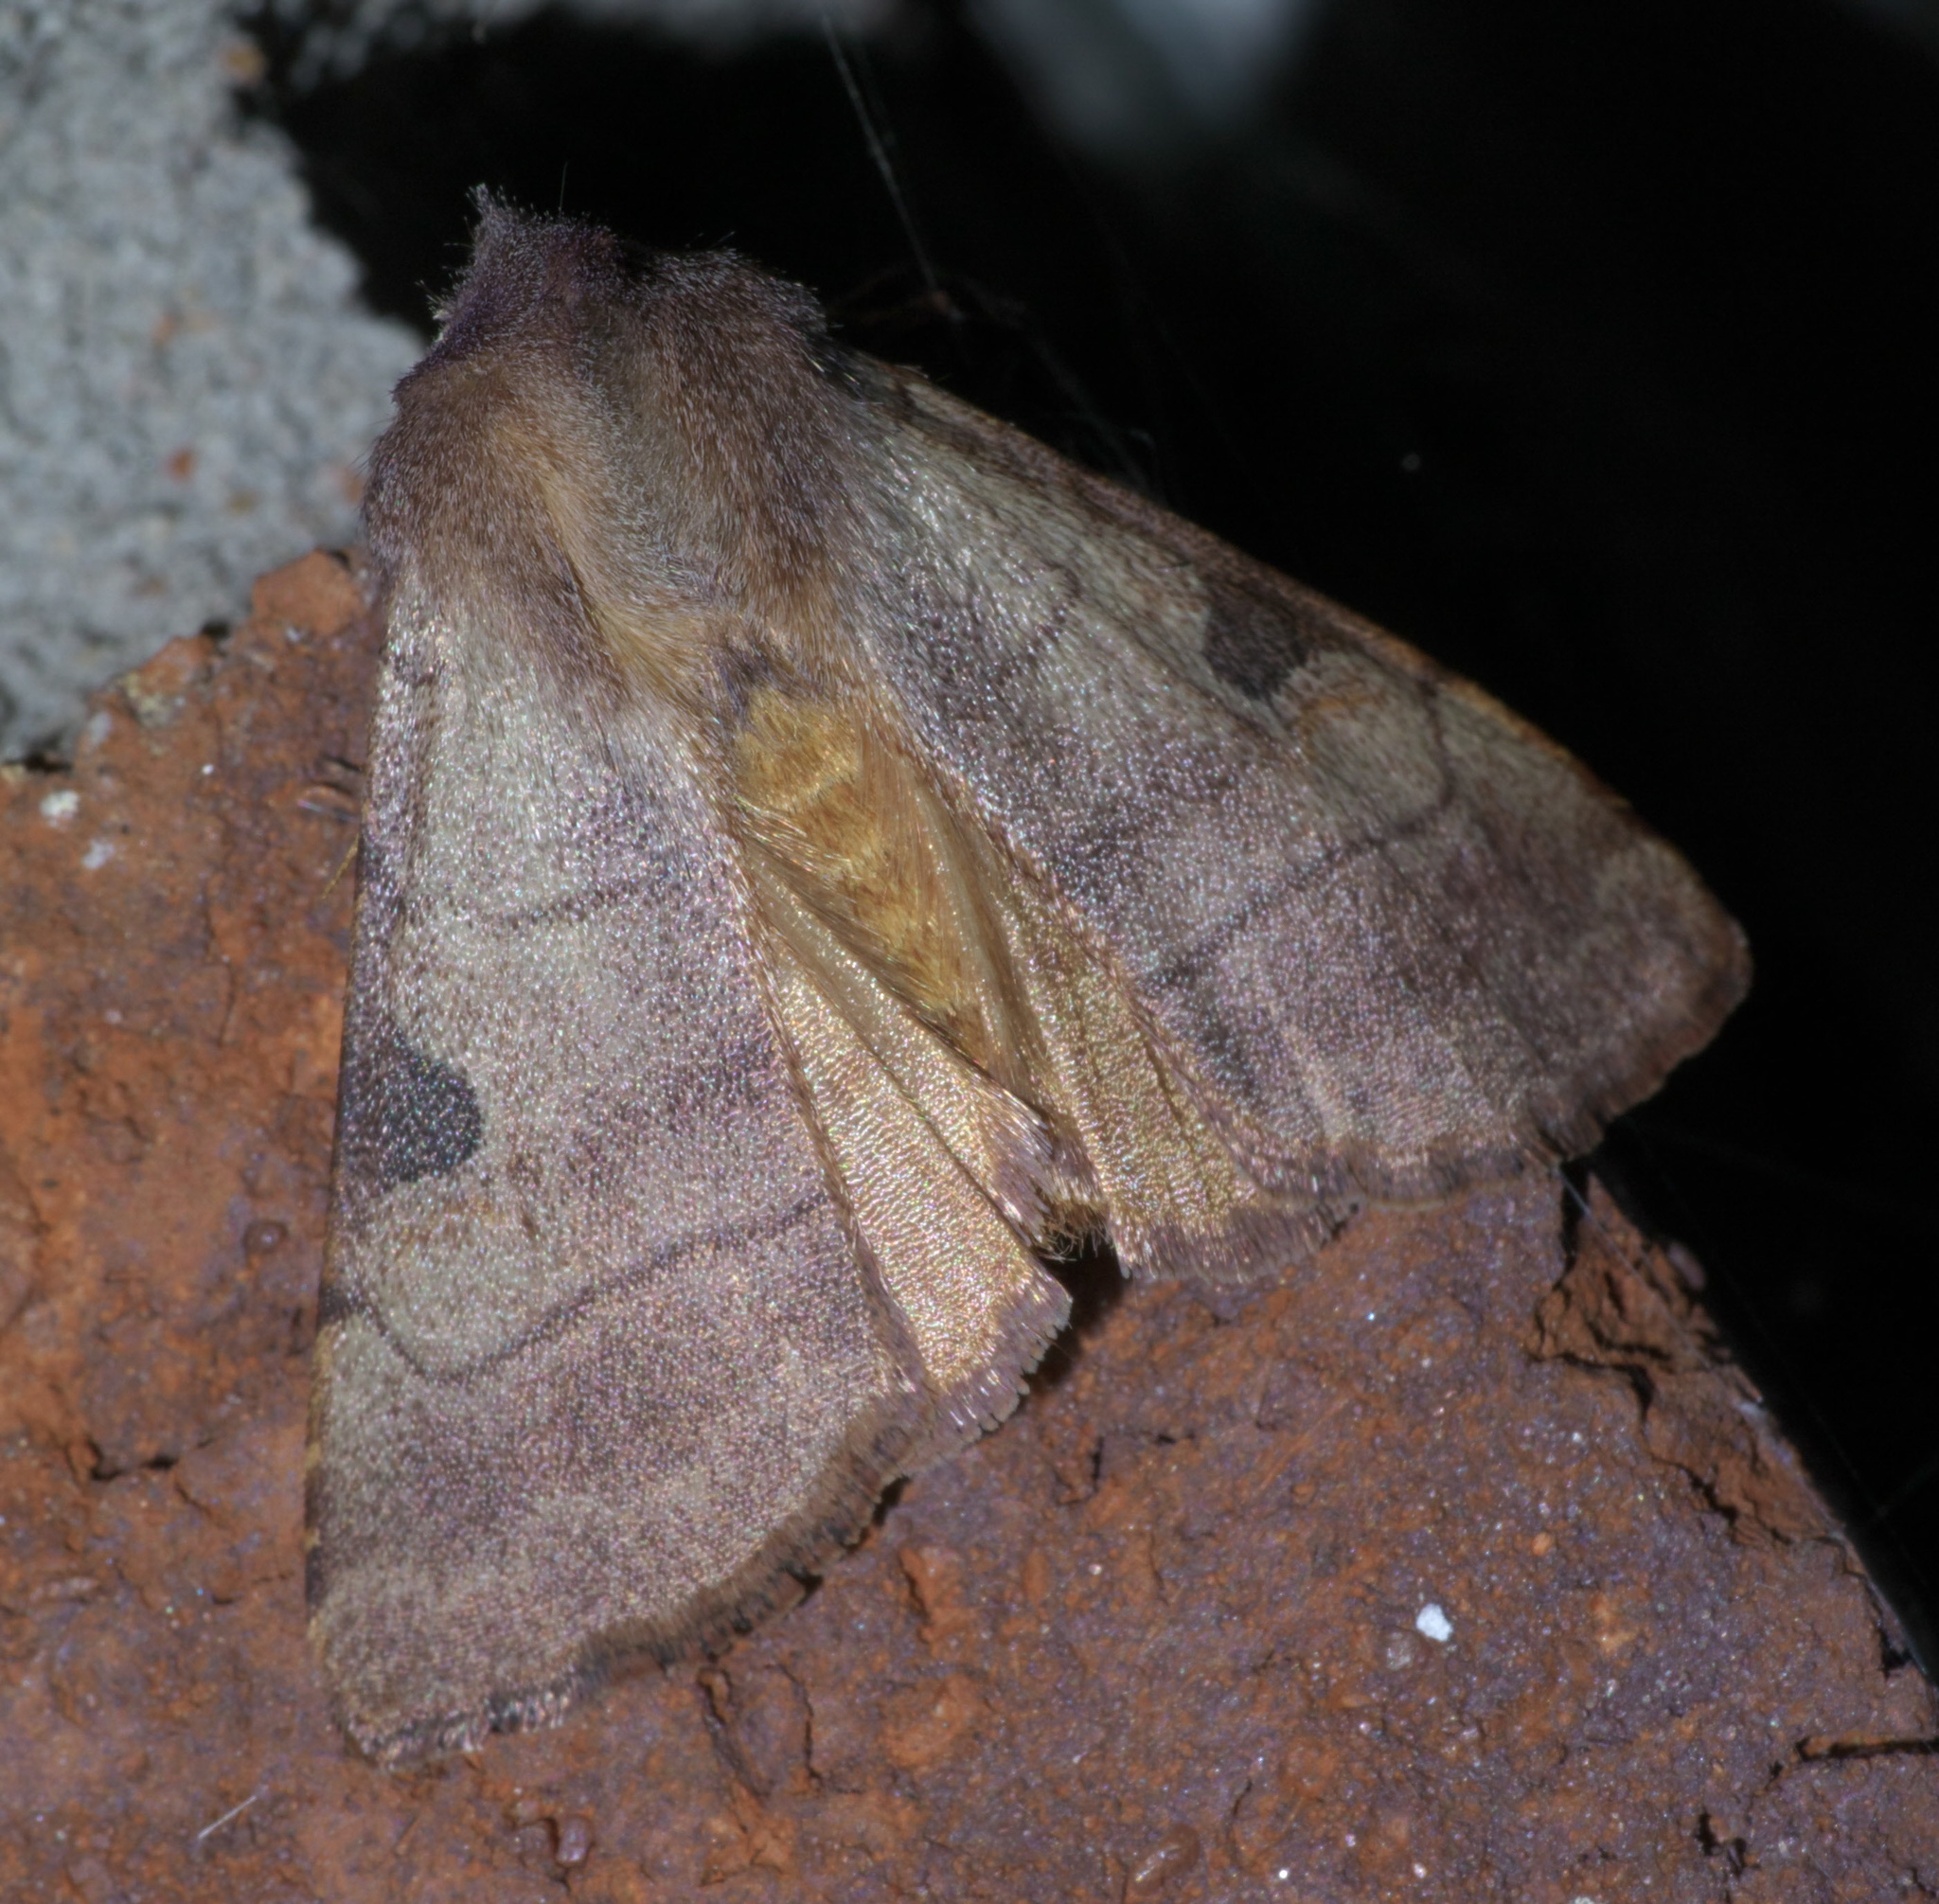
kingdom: Animalia
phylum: Arthropoda
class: Insecta
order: Lepidoptera
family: Noctuidae
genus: Choephora
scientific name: Choephora fungorum
